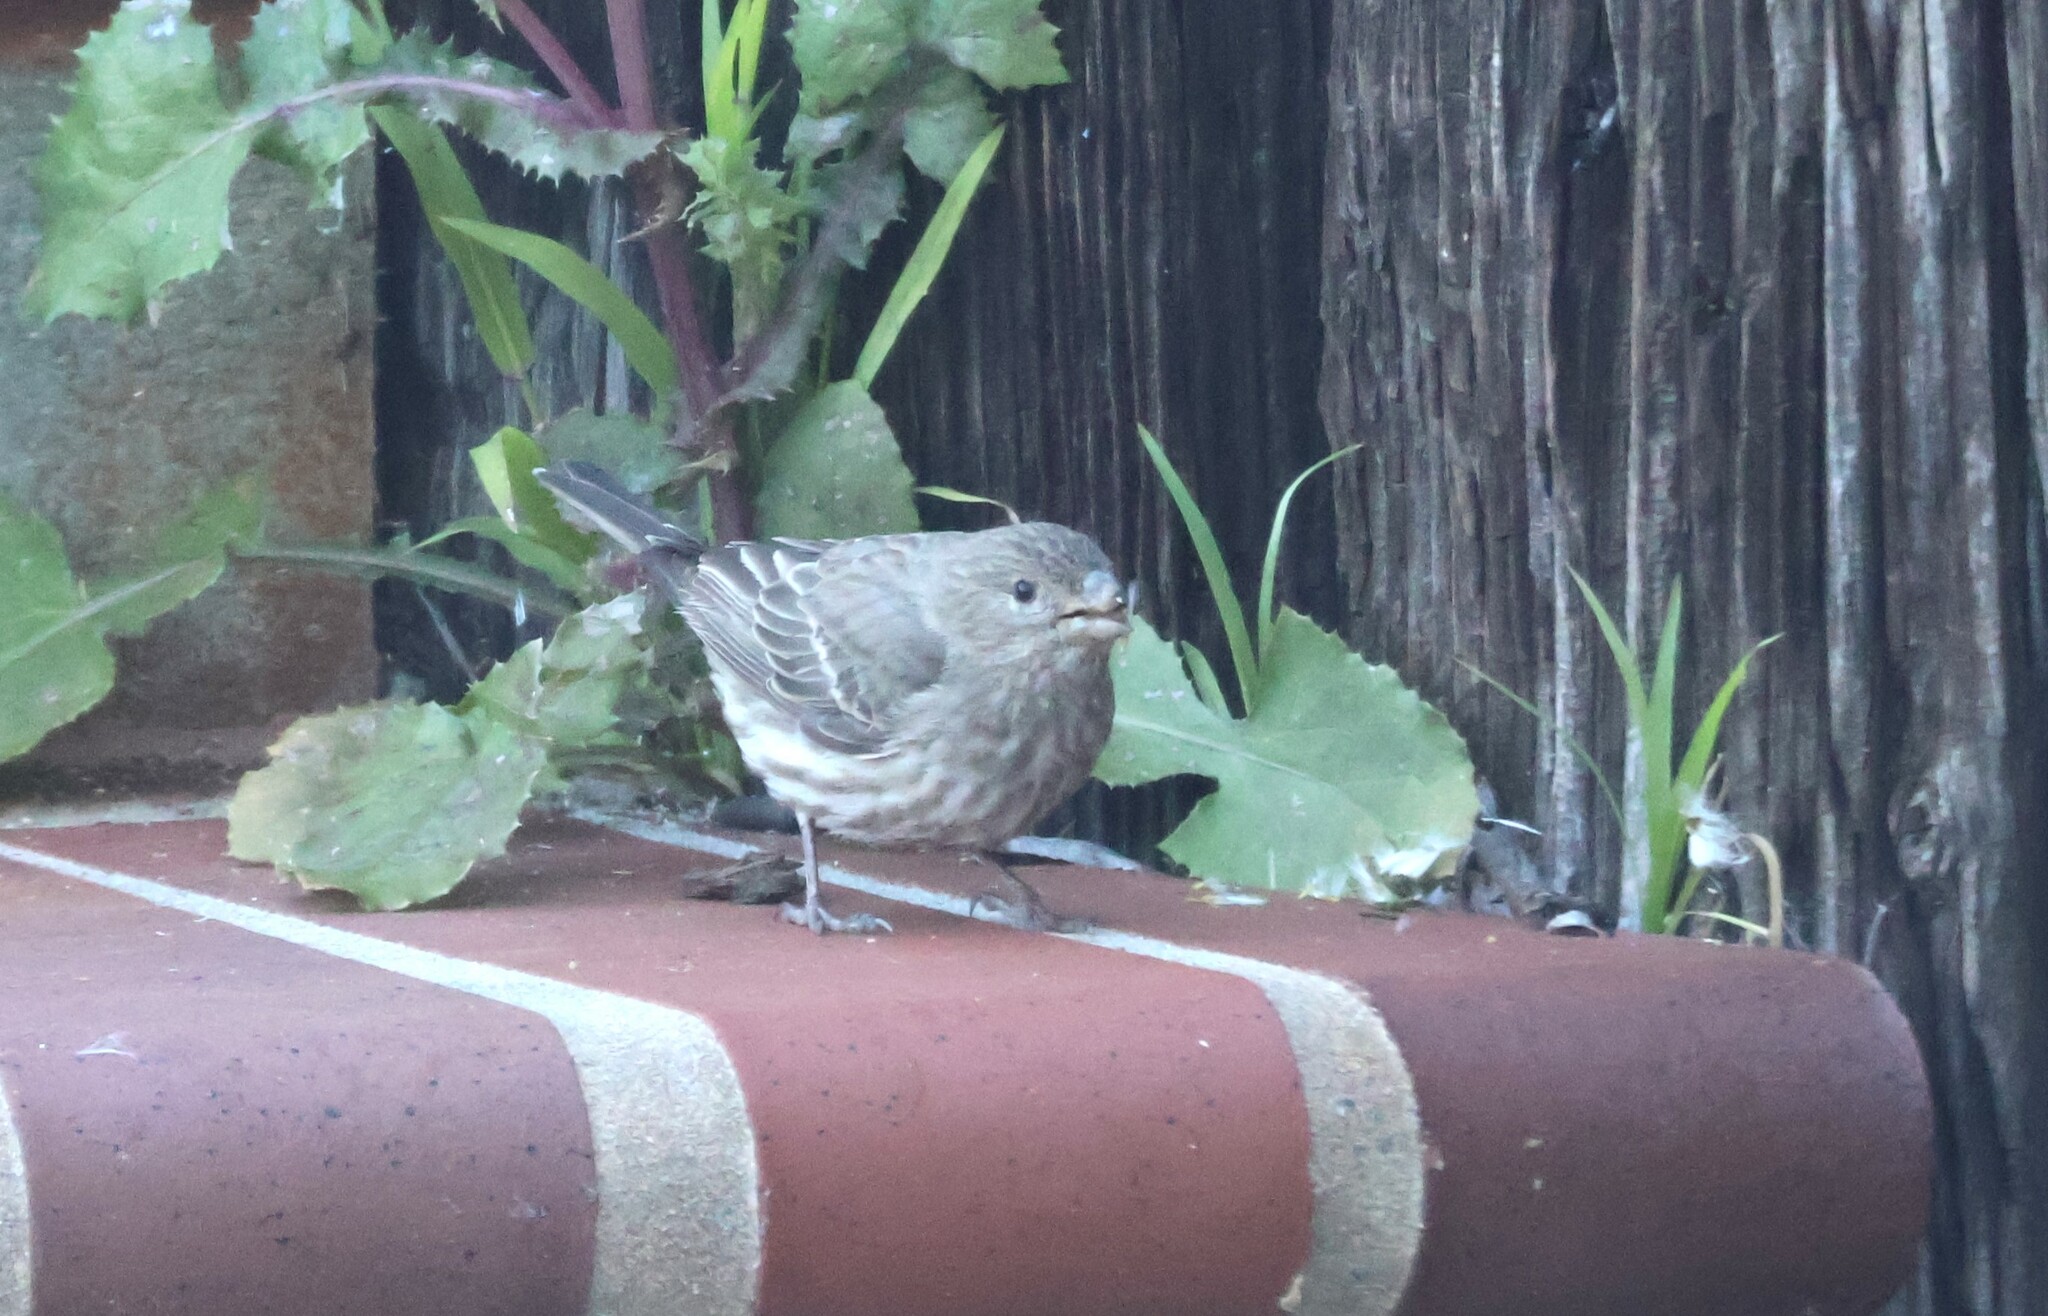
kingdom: Animalia
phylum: Chordata
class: Aves
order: Passeriformes
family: Fringillidae
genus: Haemorhous
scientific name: Haemorhous mexicanus
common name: House finch
